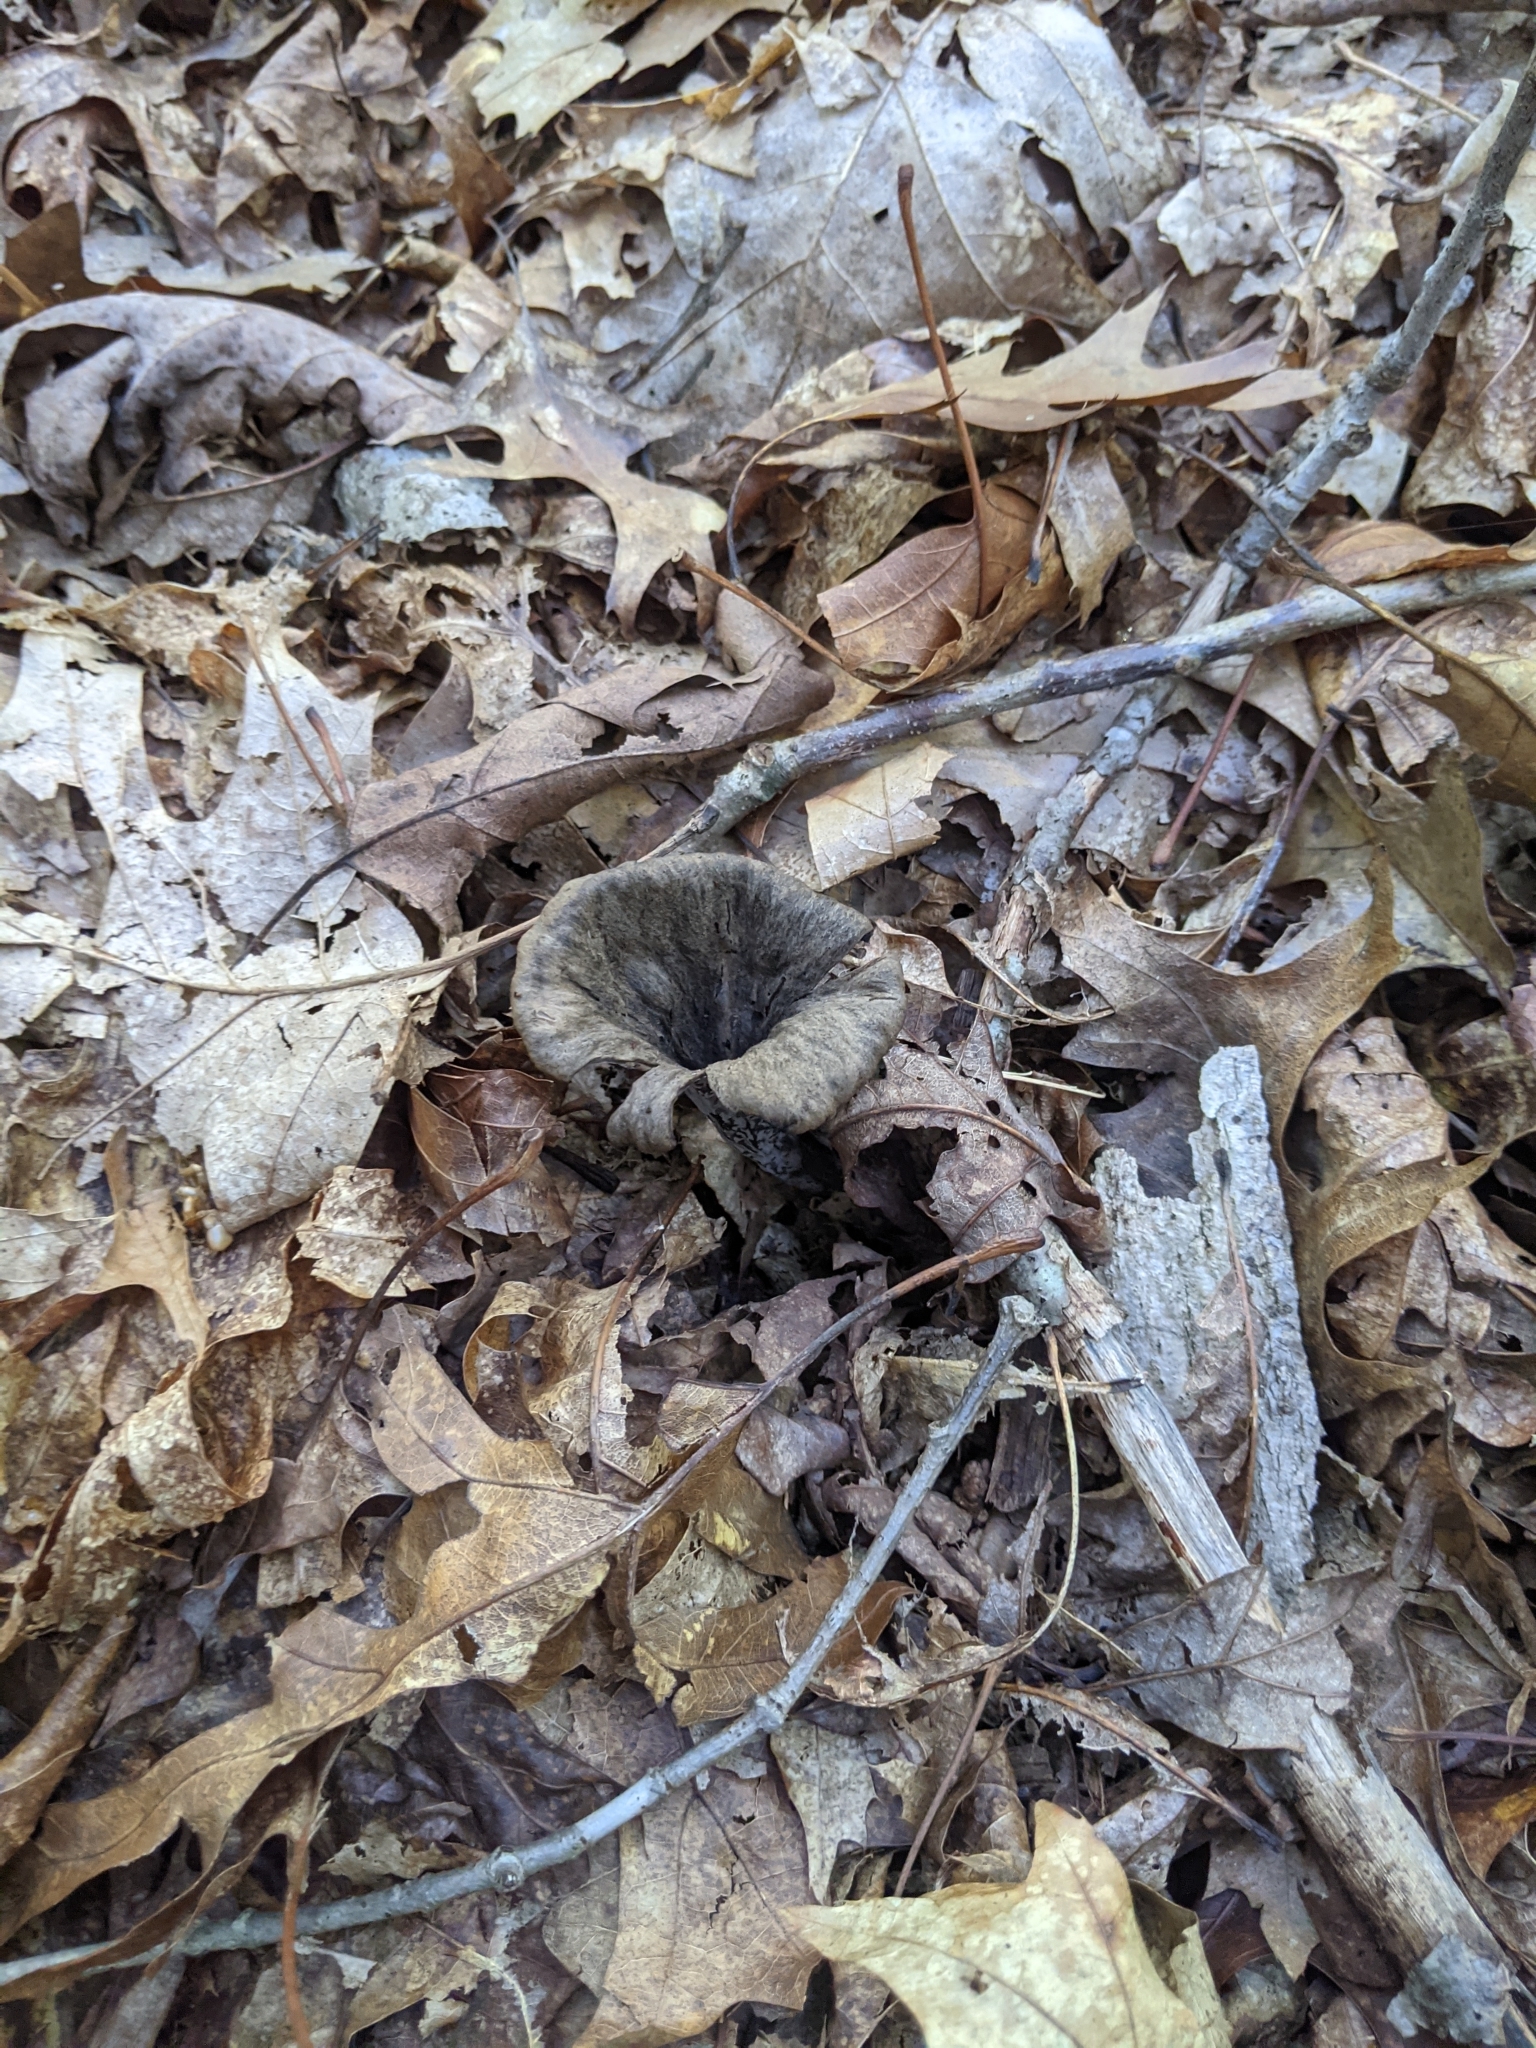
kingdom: Fungi
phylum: Basidiomycota
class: Agaricomycetes
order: Cantharellales
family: Hydnaceae
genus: Craterellus
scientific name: Craterellus cornucopioides
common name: Horn of plenty
